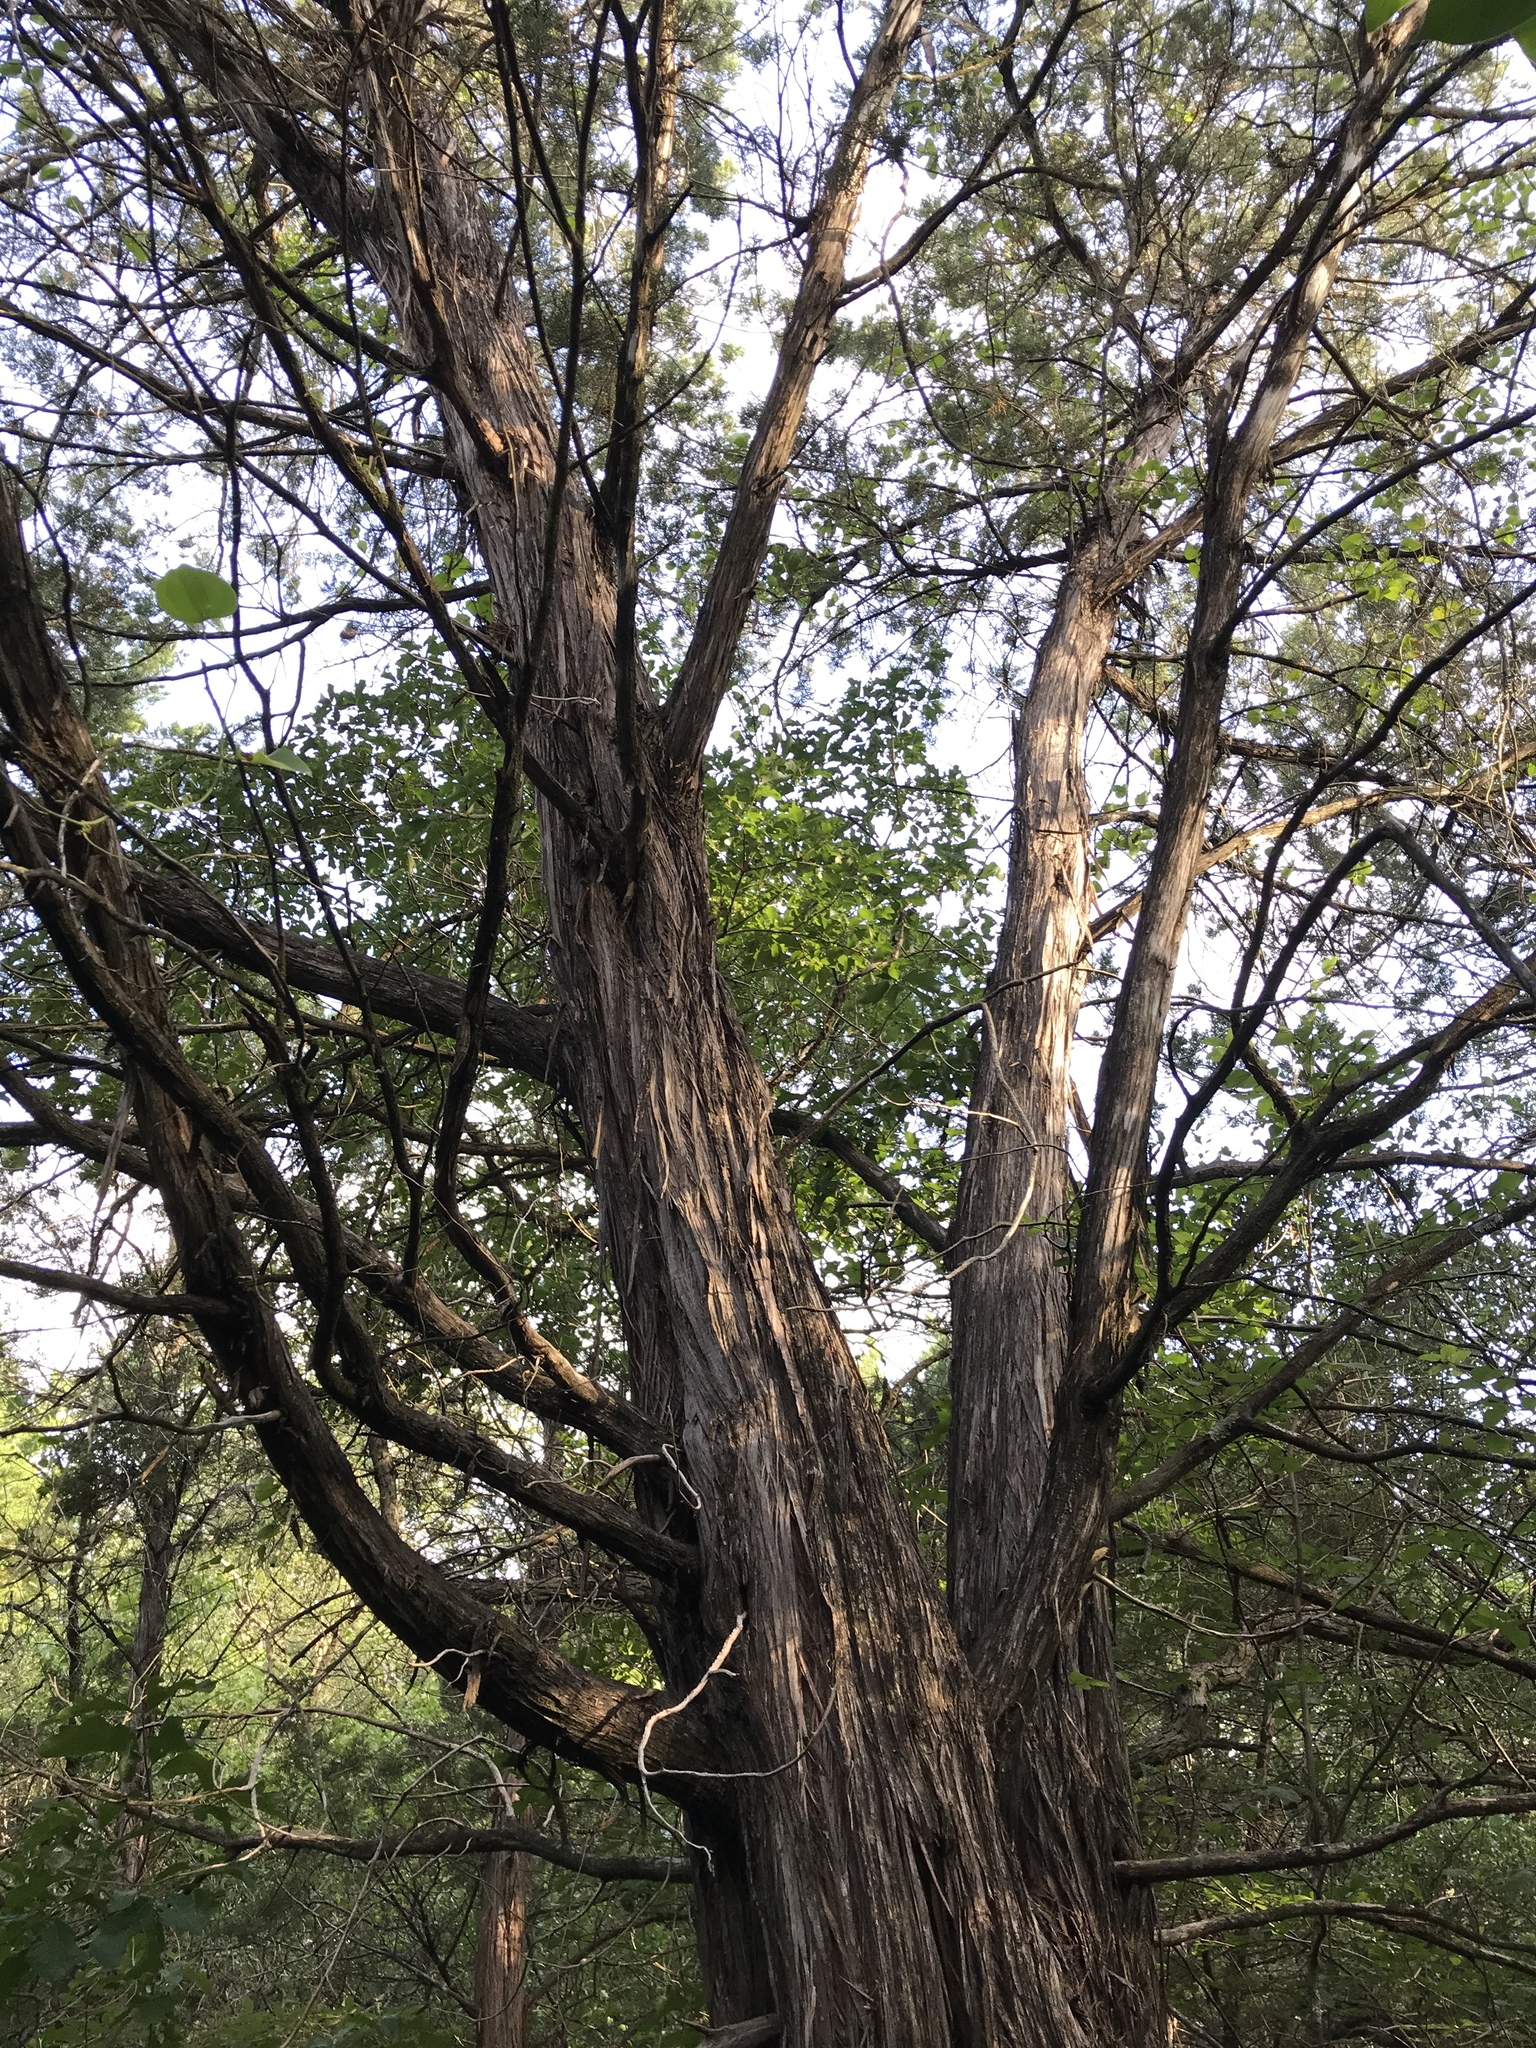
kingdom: Plantae
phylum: Tracheophyta
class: Pinopsida
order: Pinales
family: Cupressaceae
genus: Juniperus
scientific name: Juniperus ashei
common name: Mexican juniper
